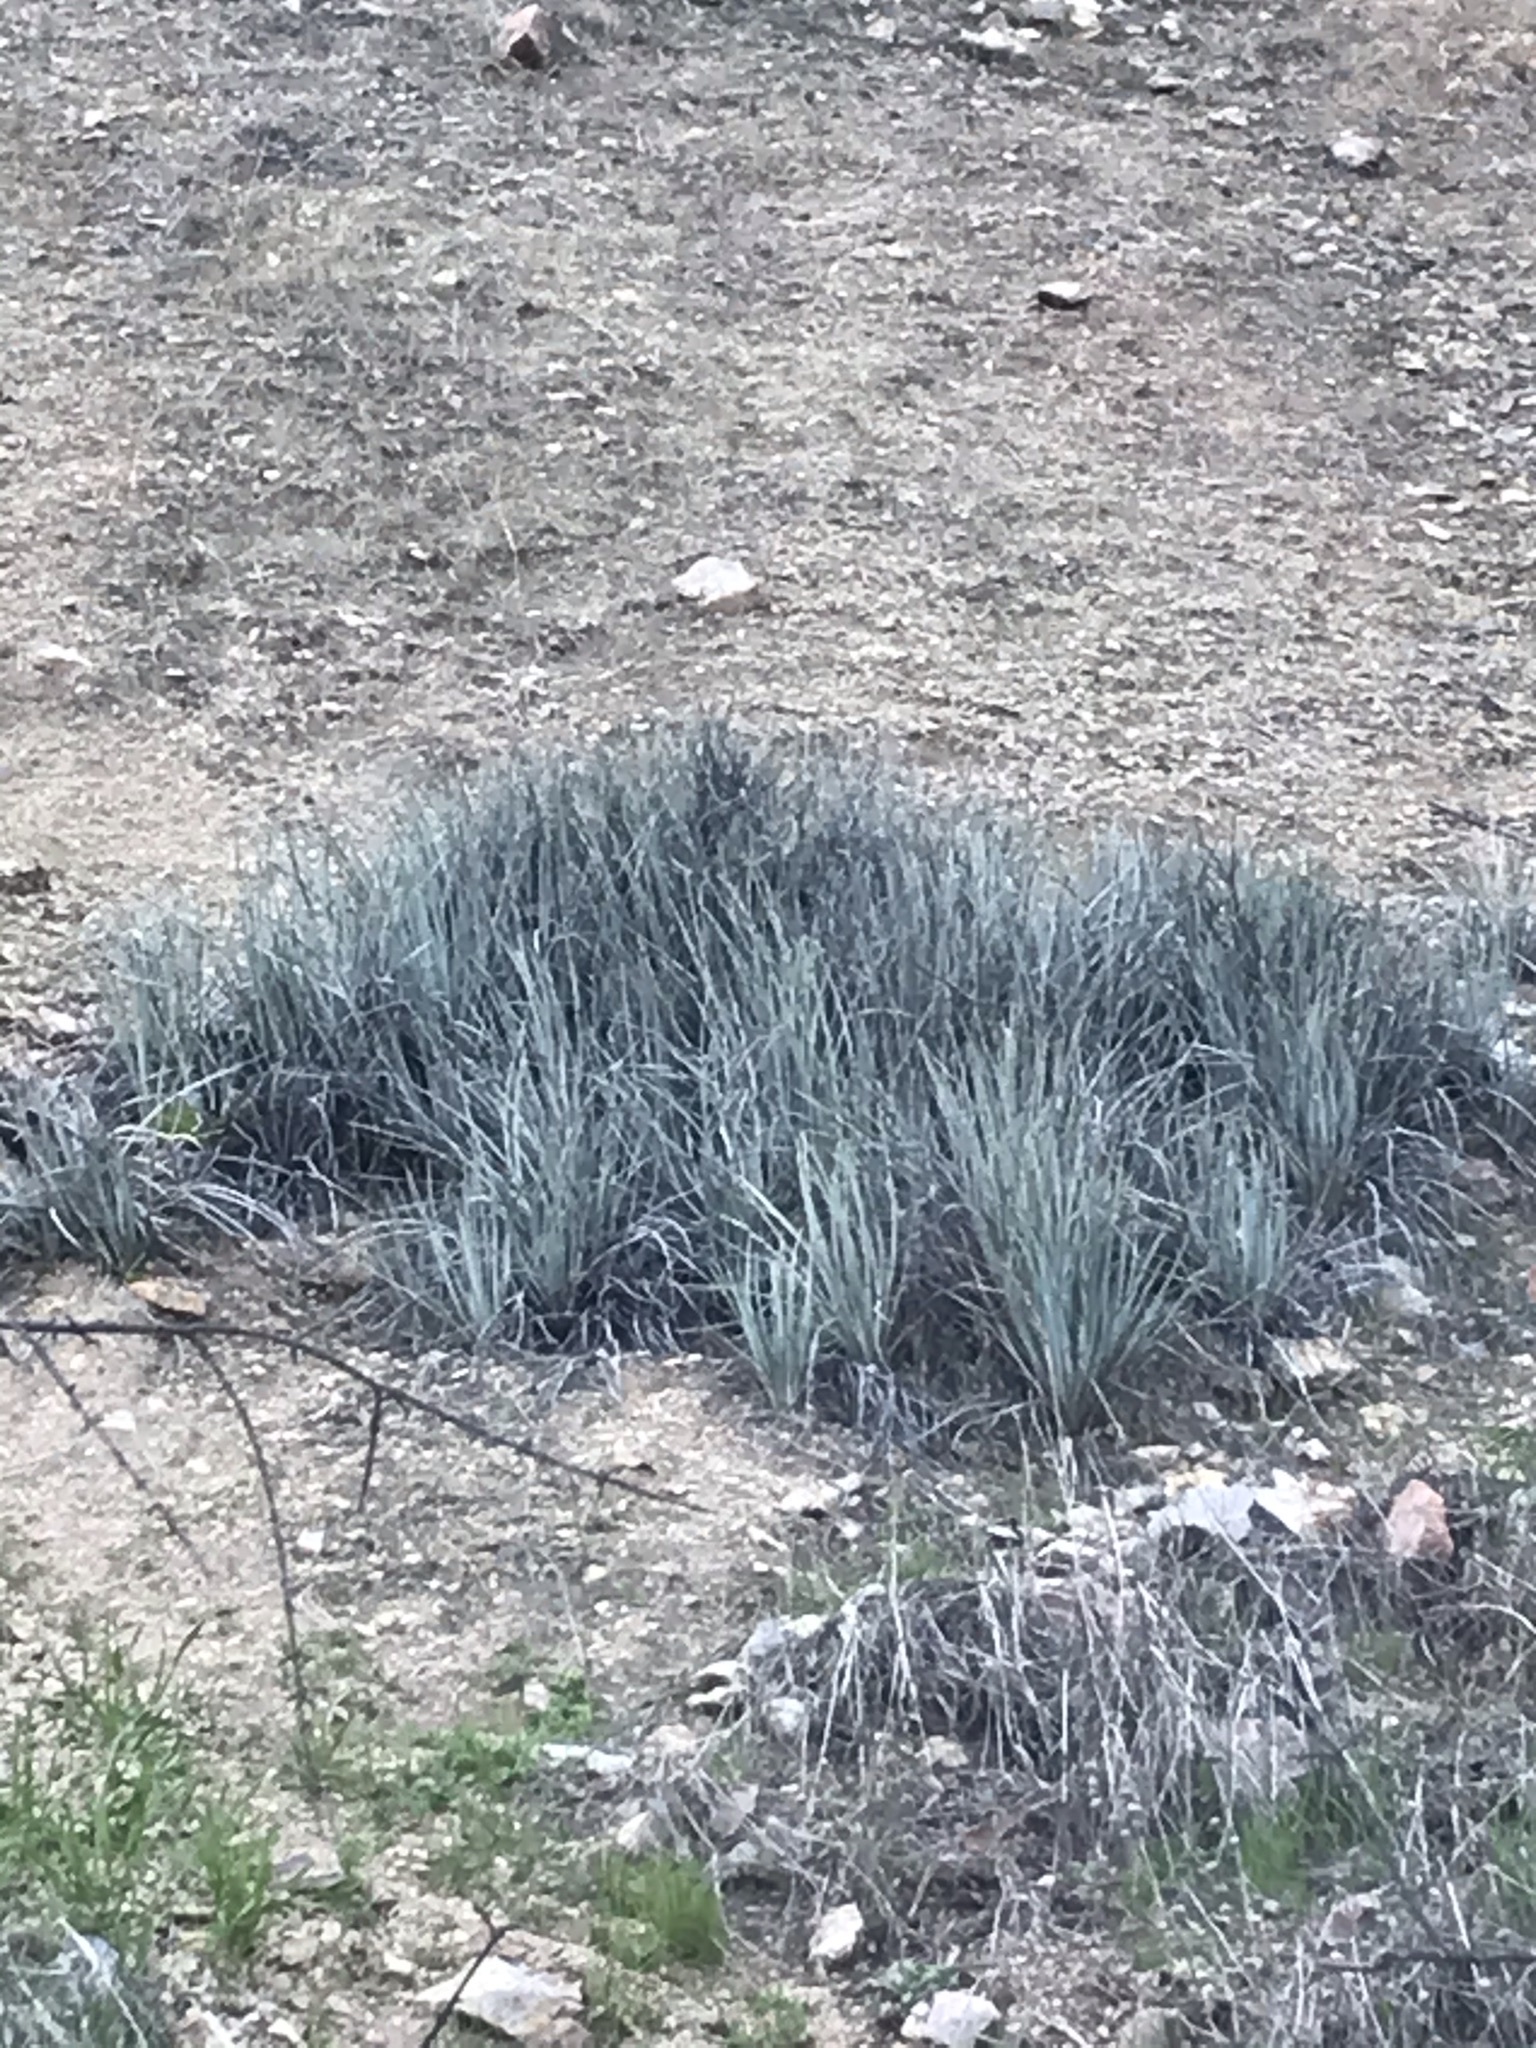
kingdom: Plantae
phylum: Tracheophyta
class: Liliopsida
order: Asparagales
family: Asparagaceae
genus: Hesperoyucca
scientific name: Hesperoyucca whipplei
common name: Our lord's-candle
